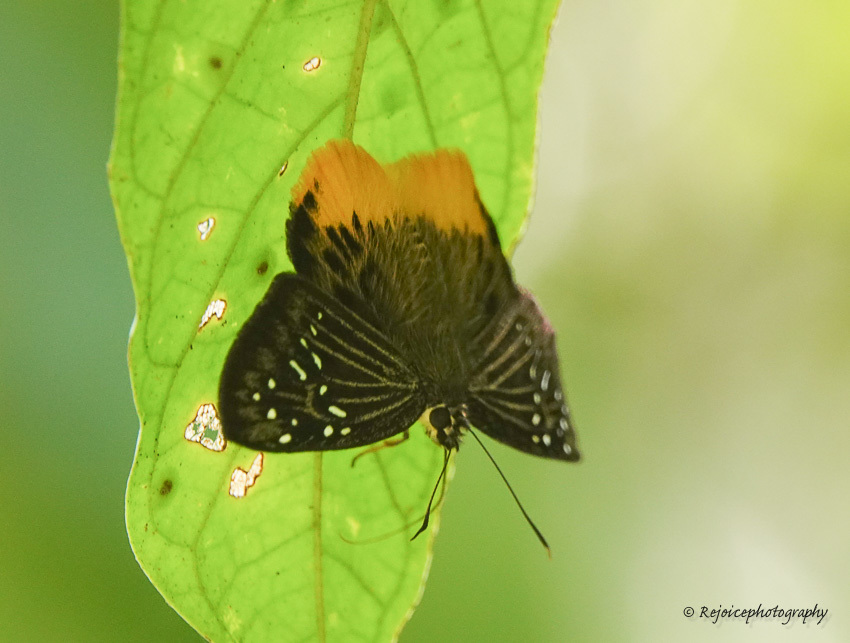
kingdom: Animalia
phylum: Arthropoda
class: Insecta
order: Lepidoptera
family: Hesperiidae
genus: Mooreana
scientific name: Mooreana trichoneura
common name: Yellow flat
